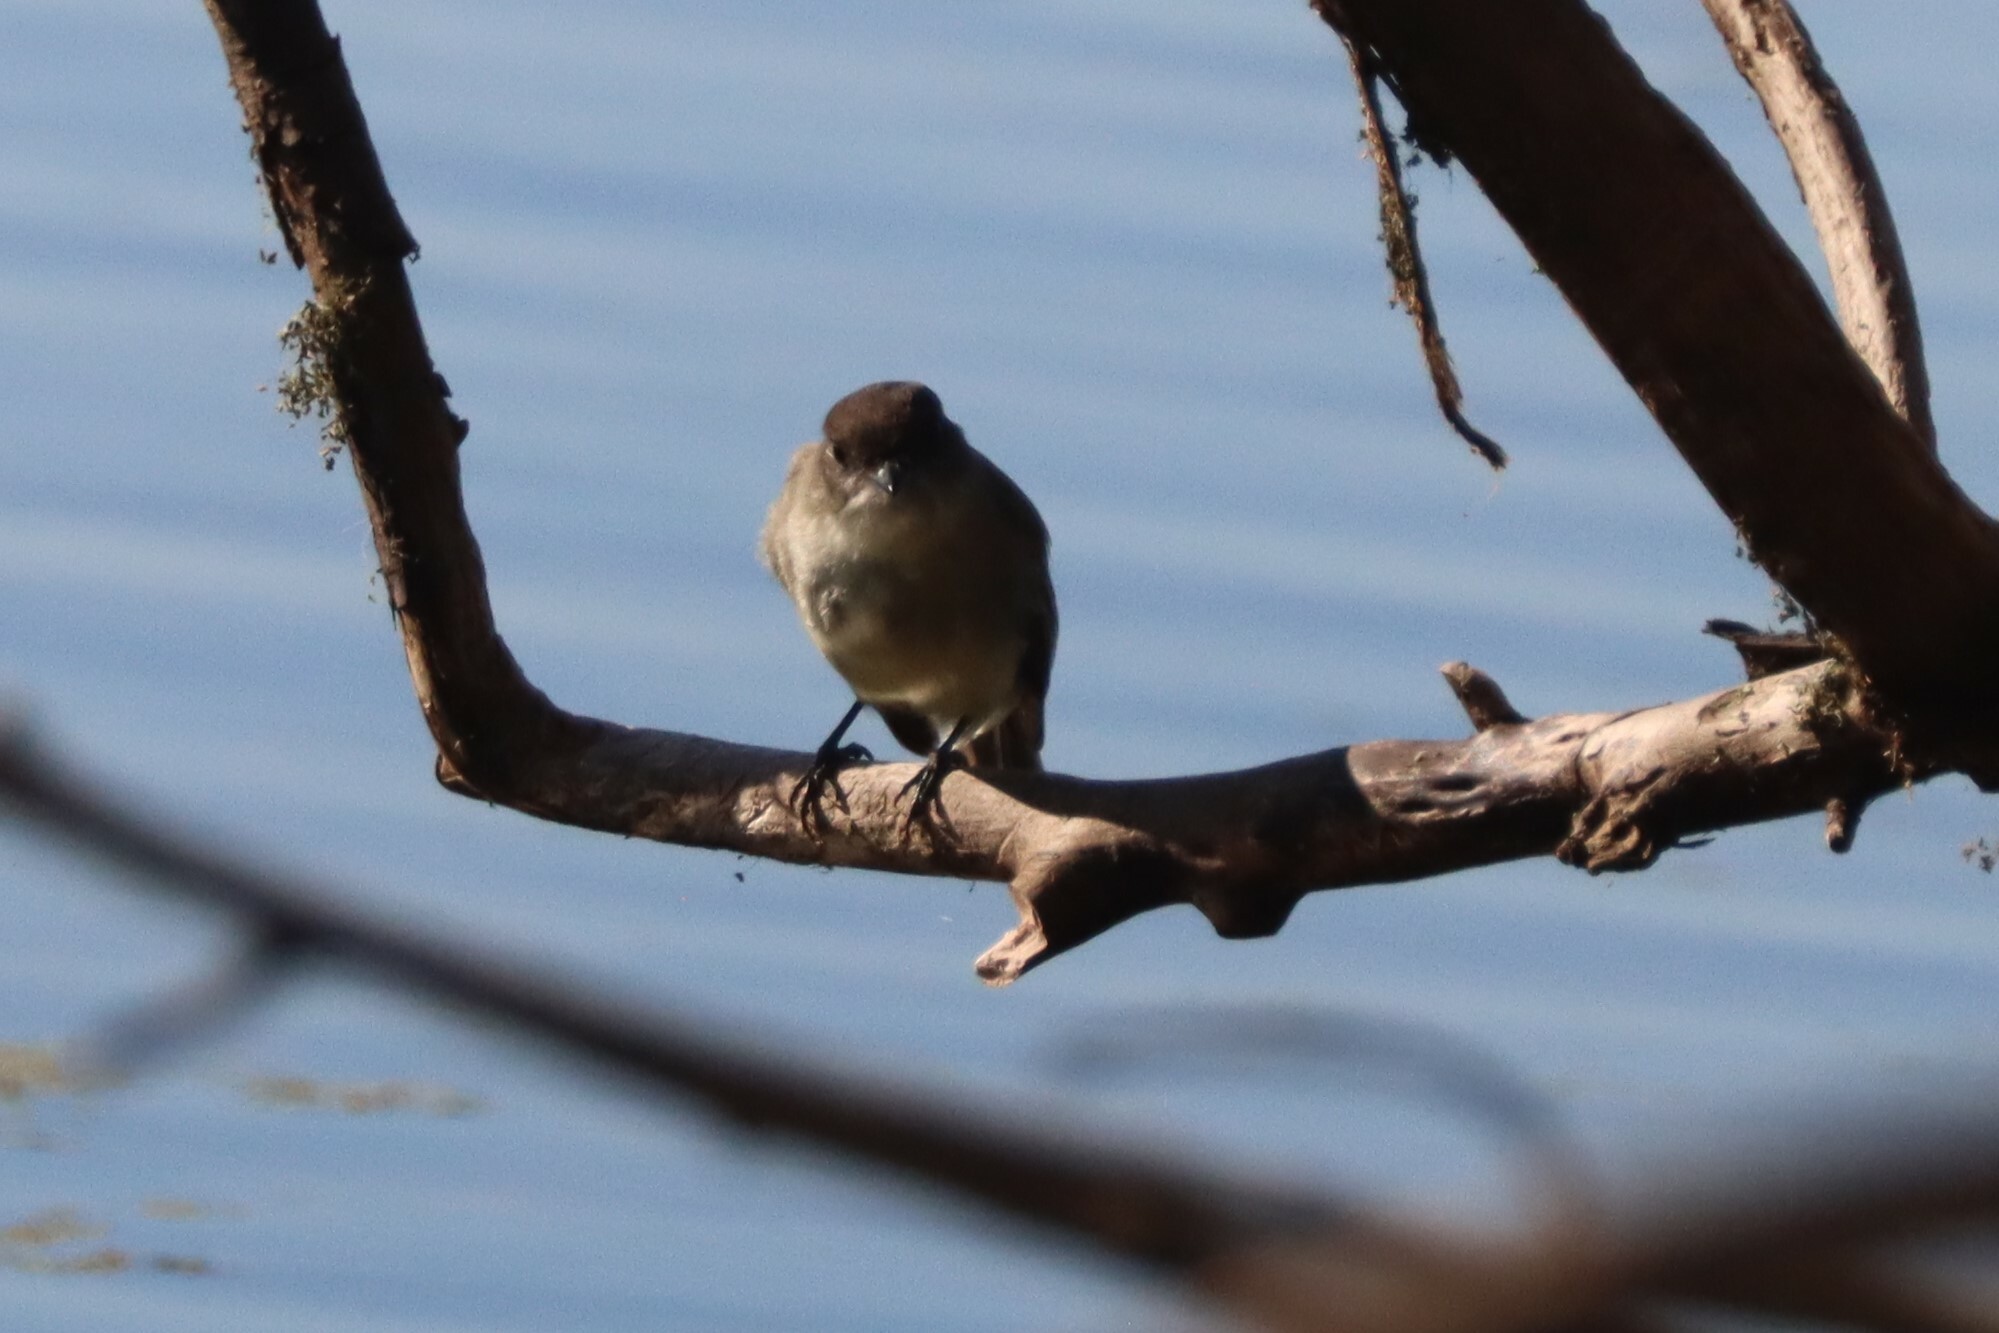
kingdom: Animalia
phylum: Chordata
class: Aves
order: Passeriformes
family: Tyrannidae
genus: Sayornis
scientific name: Sayornis phoebe
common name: Eastern phoebe
